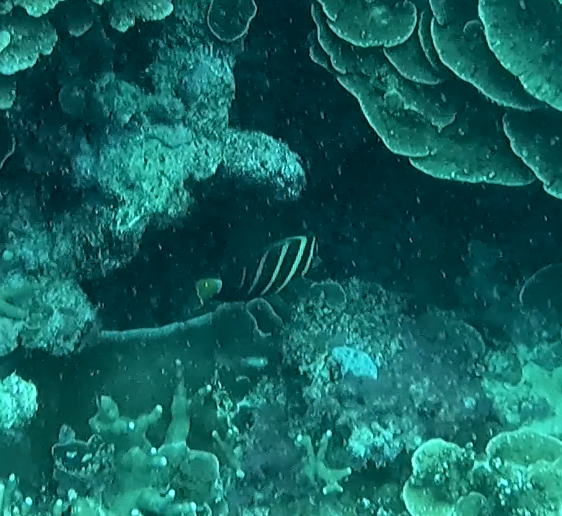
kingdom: Animalia
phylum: Chordata
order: Perciformes
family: Acanthuridae
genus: Zebrasoma
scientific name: Zebrasoma veliferum
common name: Sailfin surgeonfish
